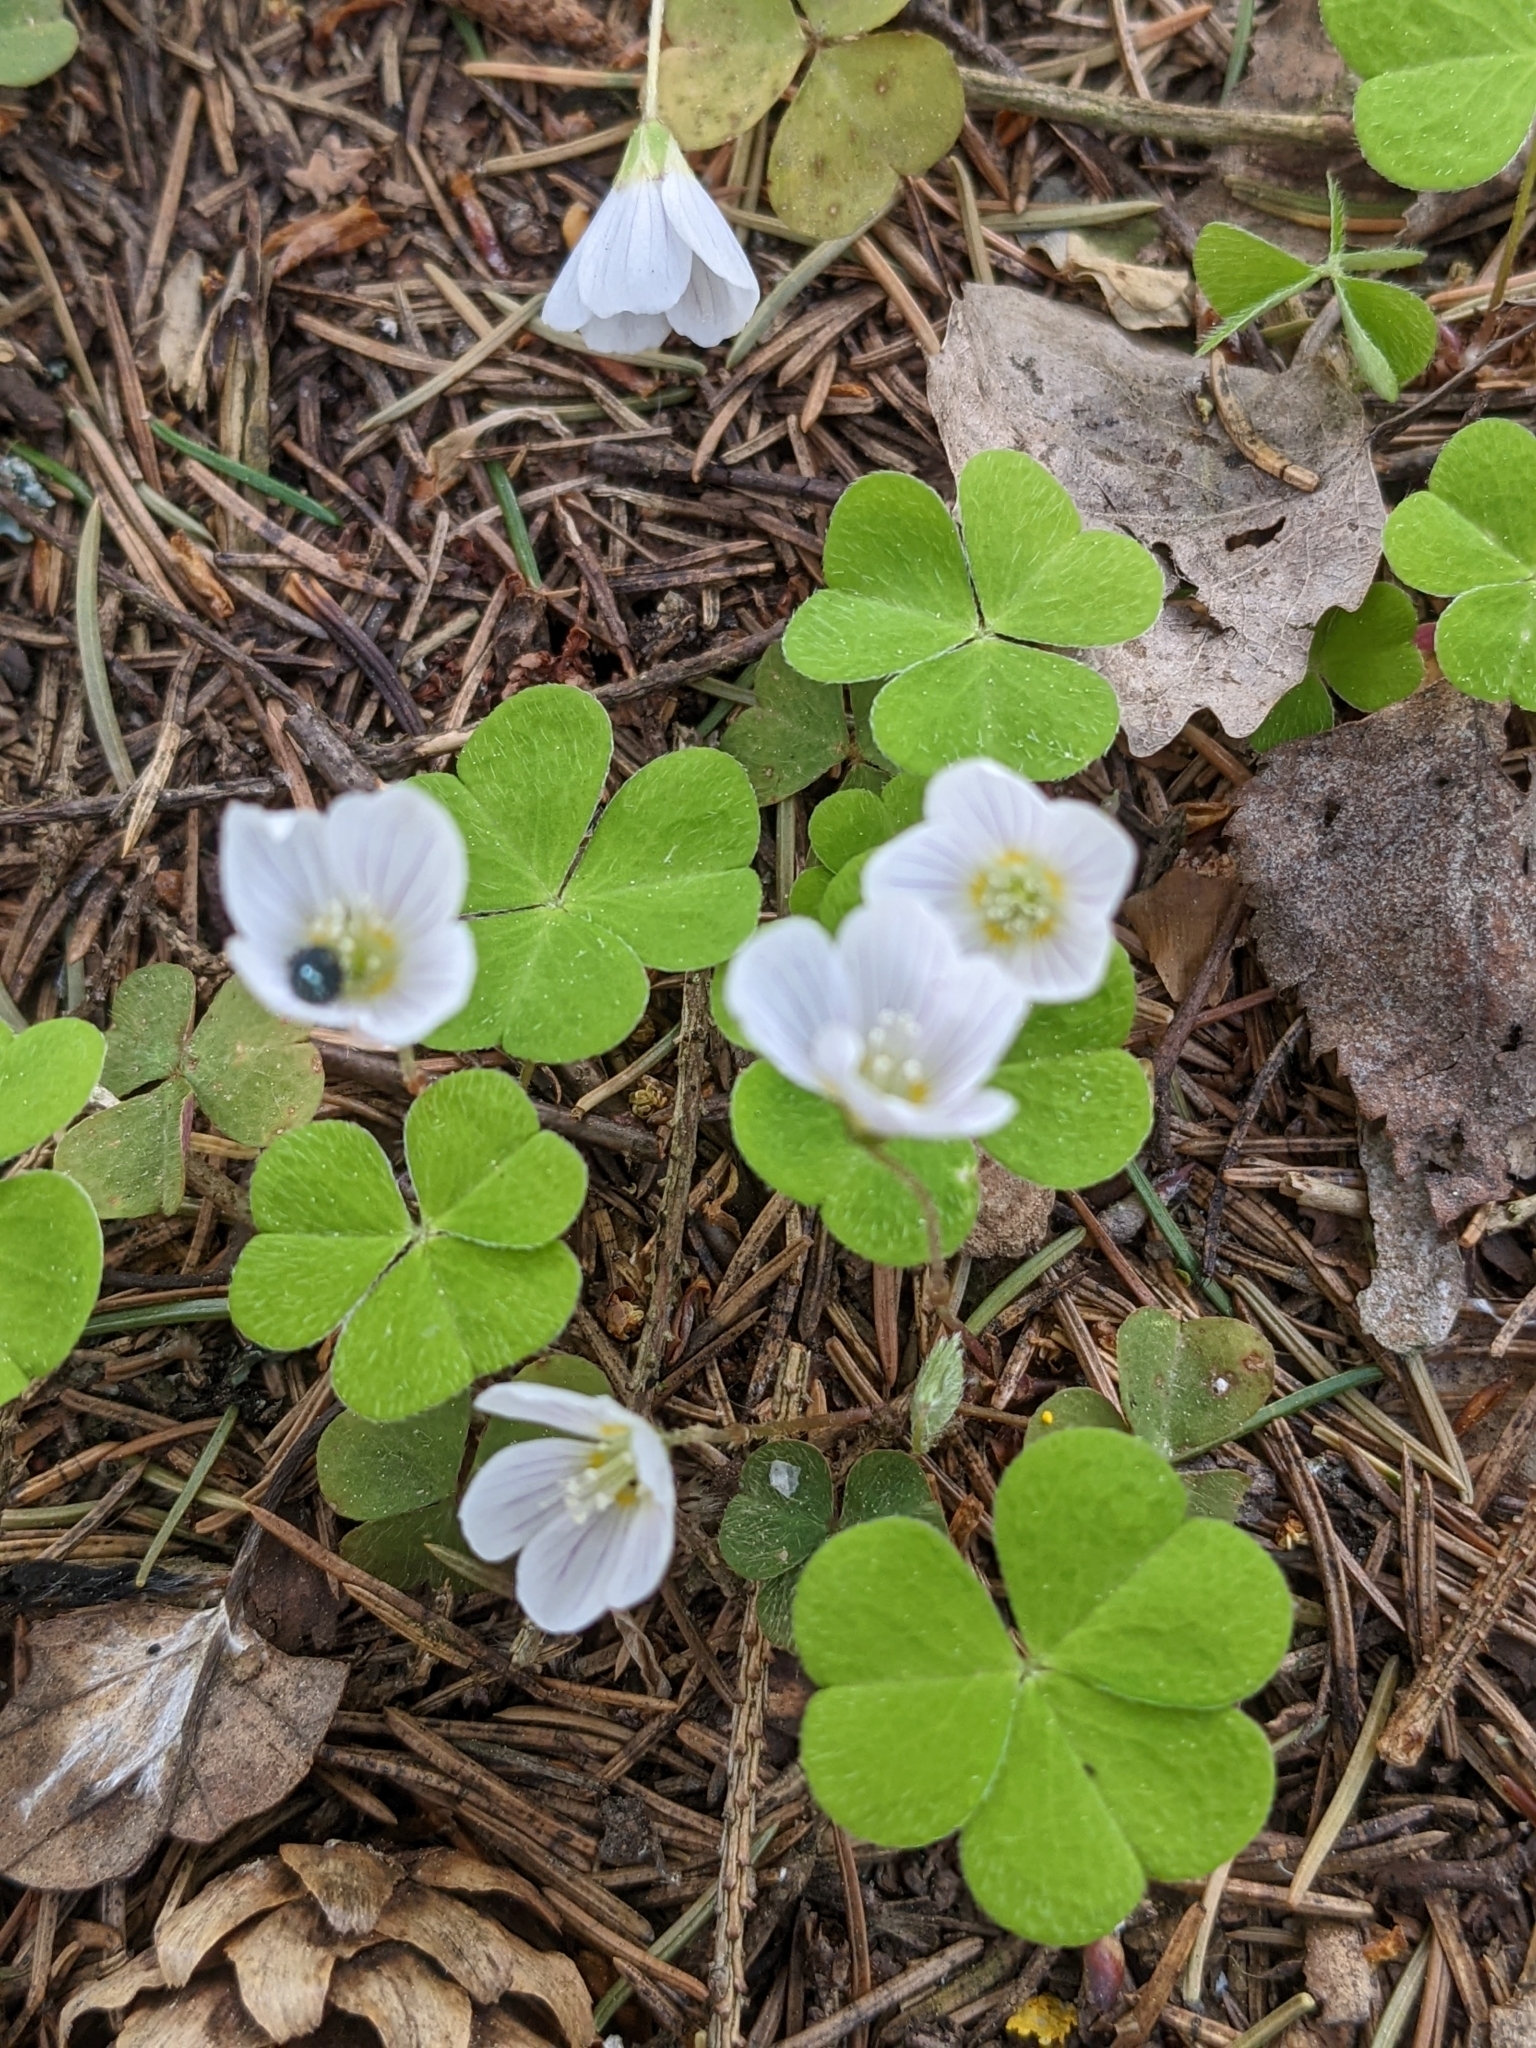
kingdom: Plantae
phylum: Tracheophyta
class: Magnoliopsida
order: Oxalidales
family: Oxalidaceae
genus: Oxalis
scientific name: Oxalis acetosella
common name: Wood-sorrel
